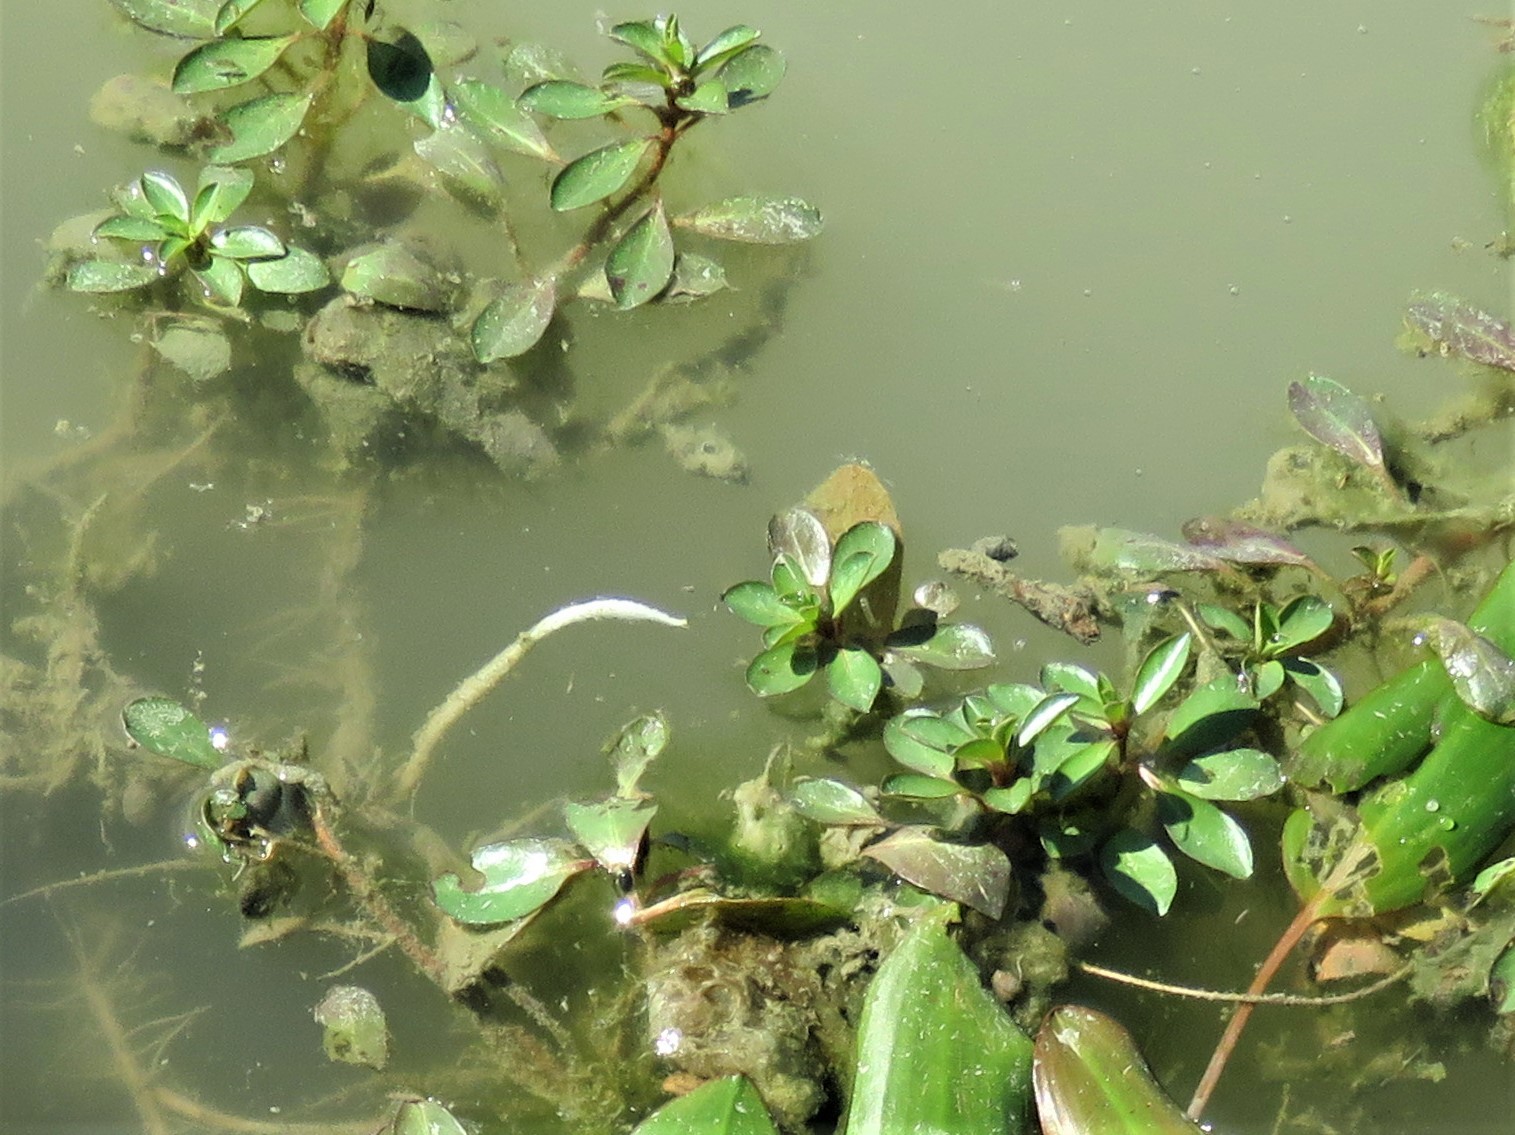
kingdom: Plantae
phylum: Tracheophyta
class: Magnoliopsida
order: Myrtales
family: Onagraceae
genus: Ludwigia
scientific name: Ludwigia peploides
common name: Floating primrose-willow
